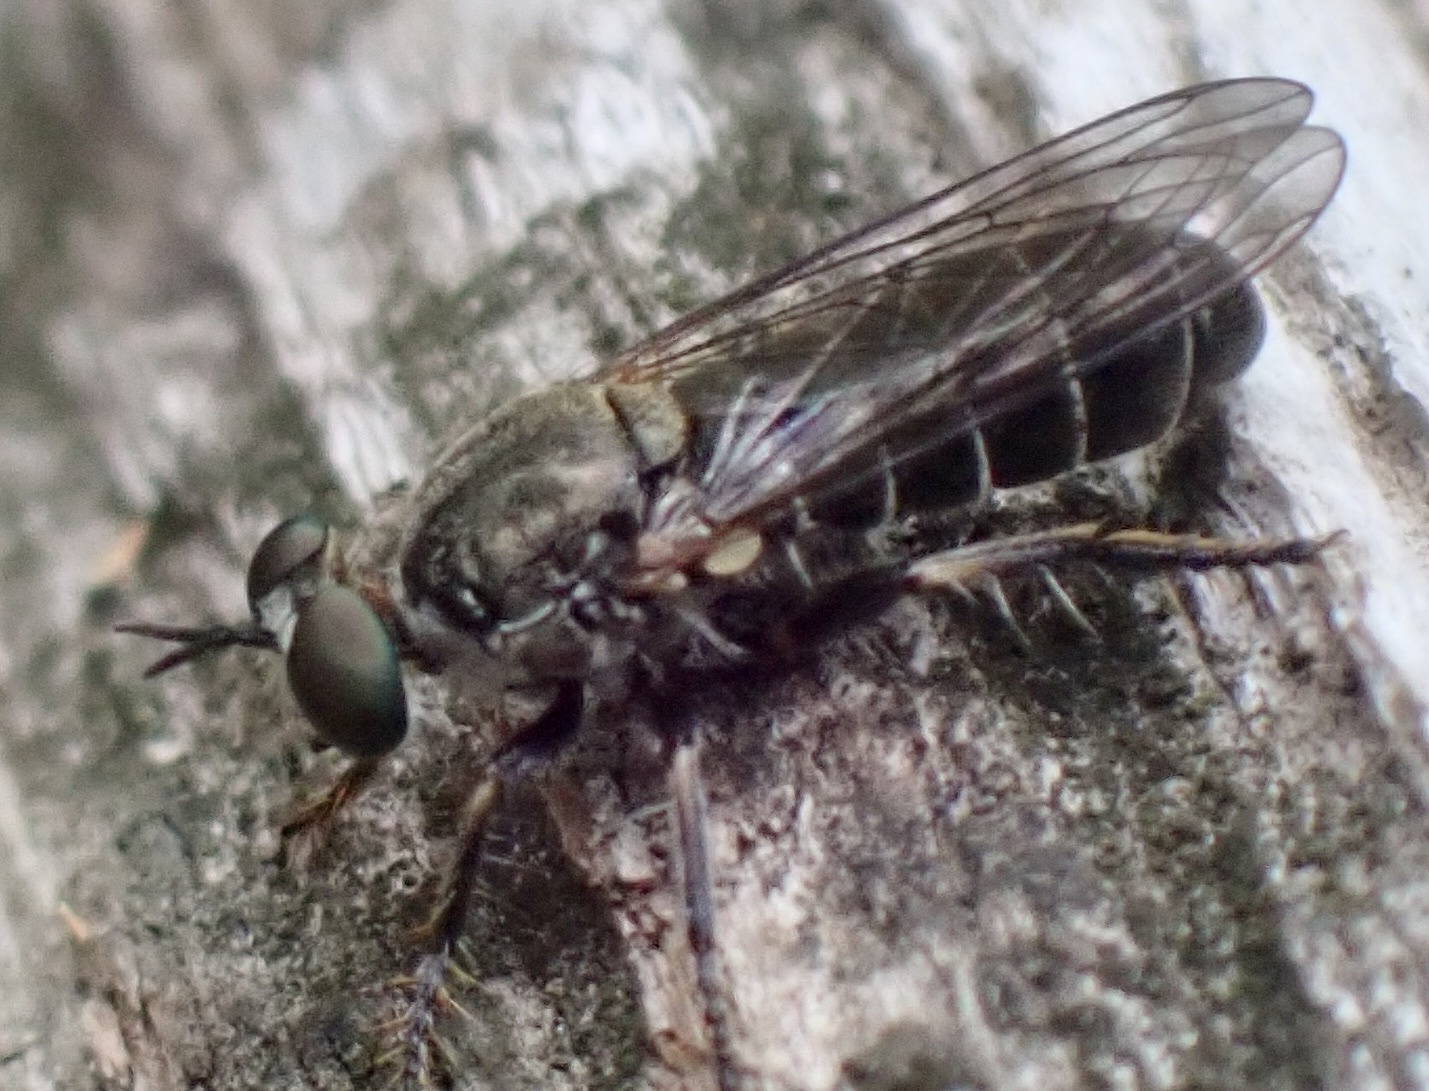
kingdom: Animalia
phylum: Arthropoda
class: Insecta
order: Diptera
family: Asilidae
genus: Atomosia
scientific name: Atomosia puella
